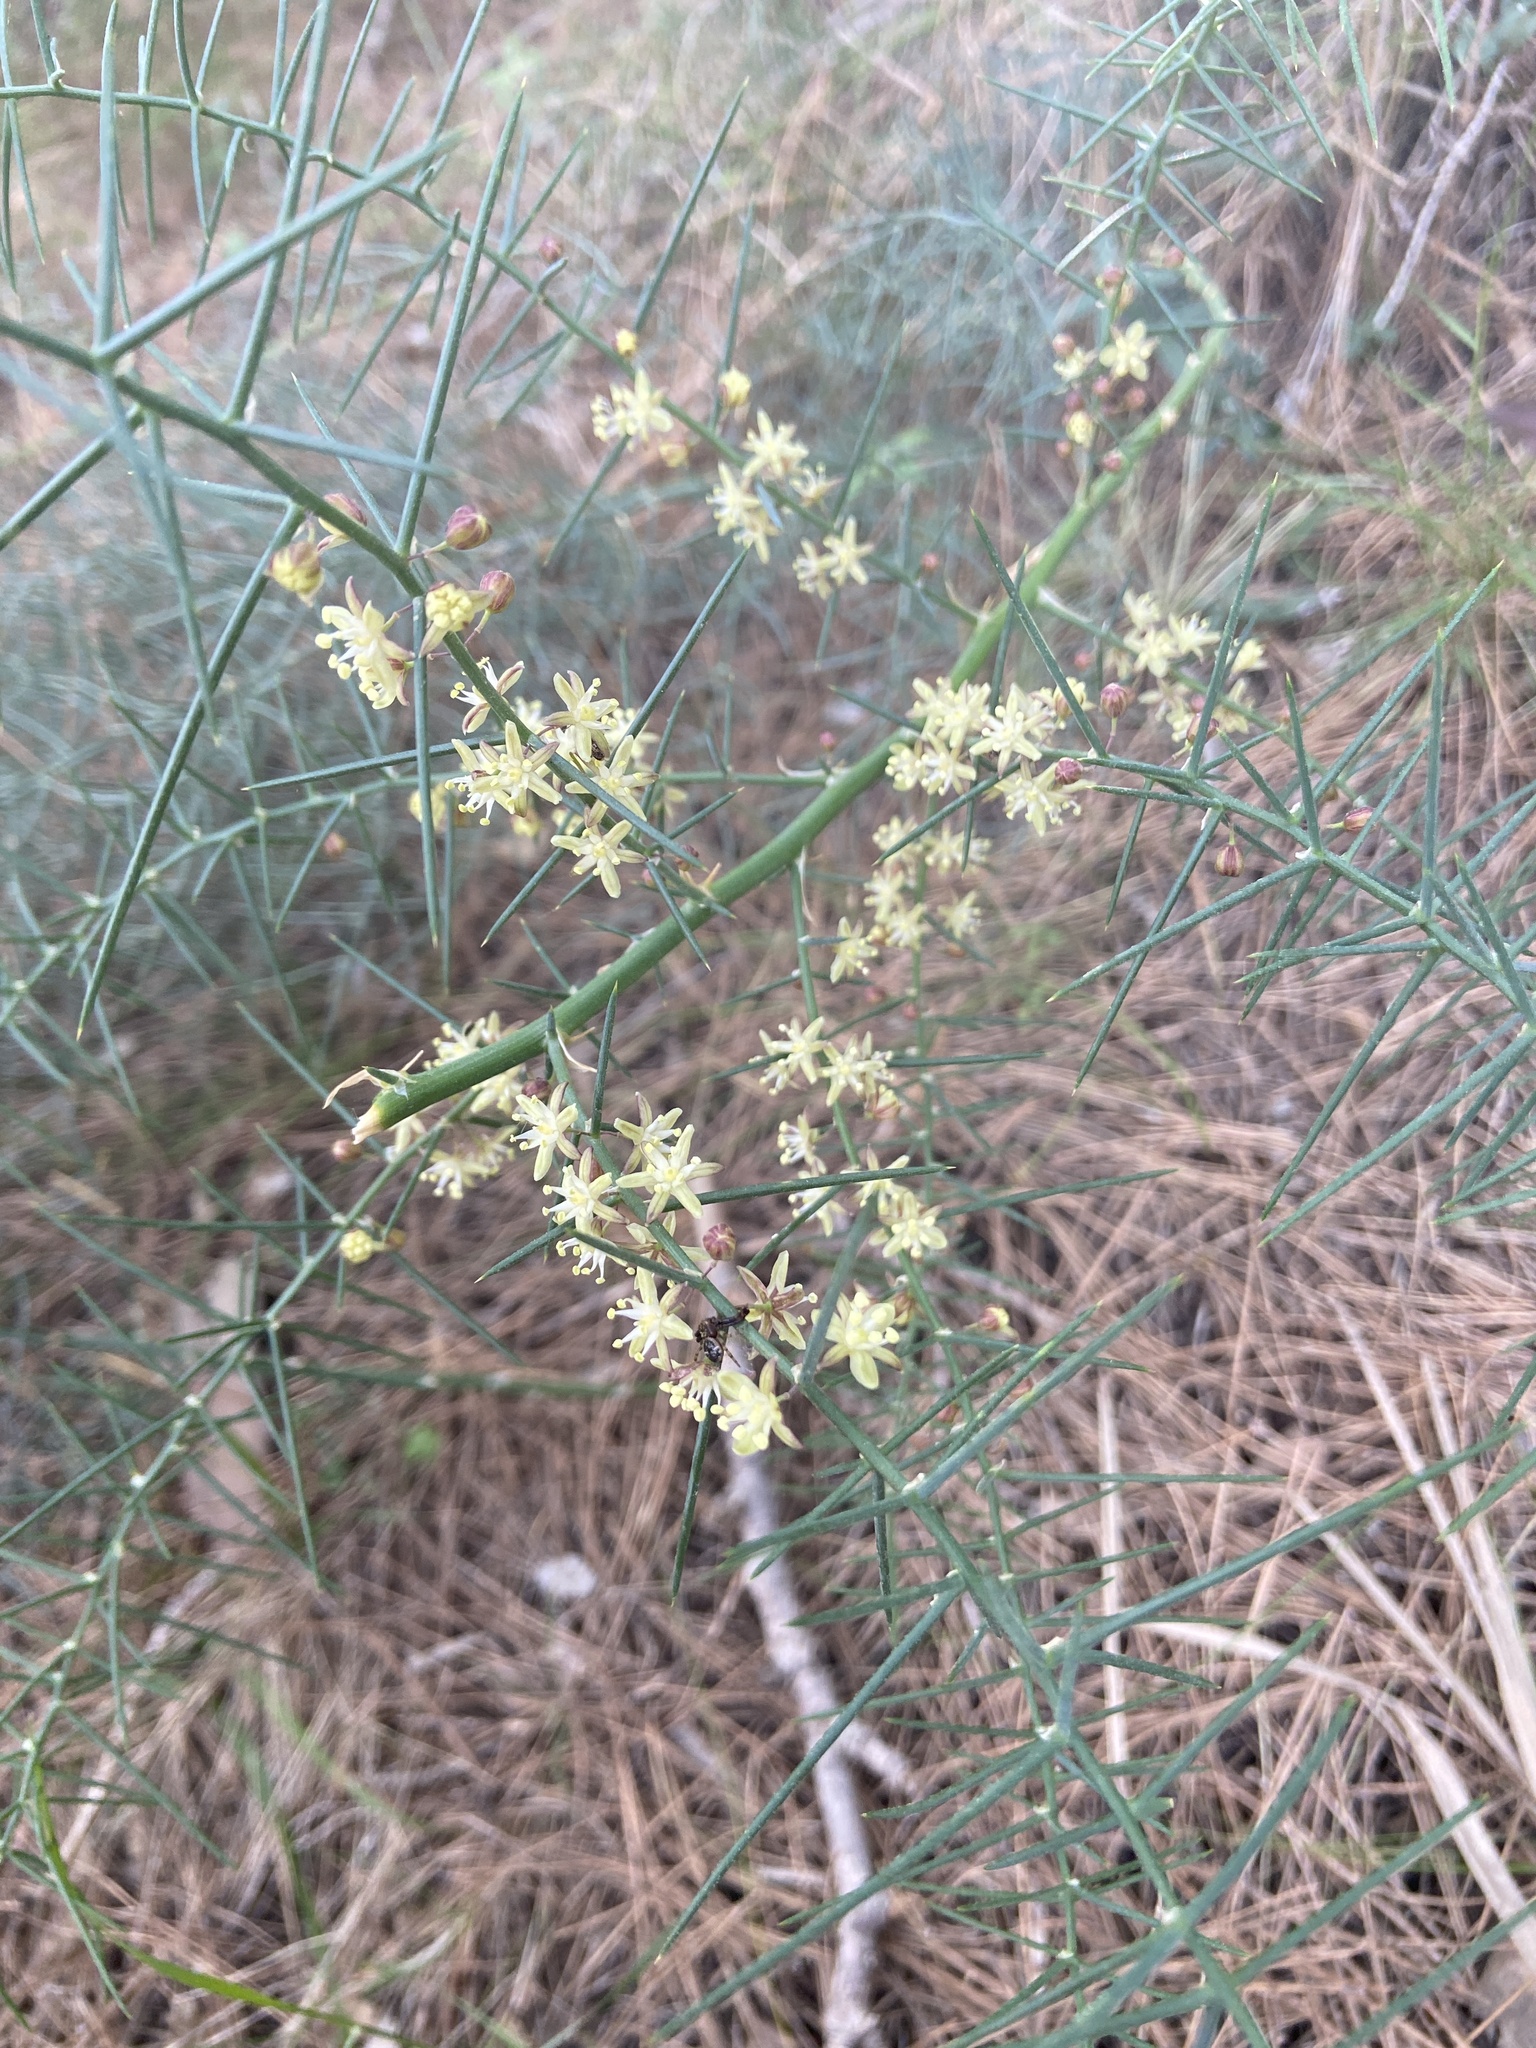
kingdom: Plantae
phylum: Tracheophyta
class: Liliopsida
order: Asparagales
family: Asparagaceae
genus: Asparagus
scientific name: Asparagus horridus
